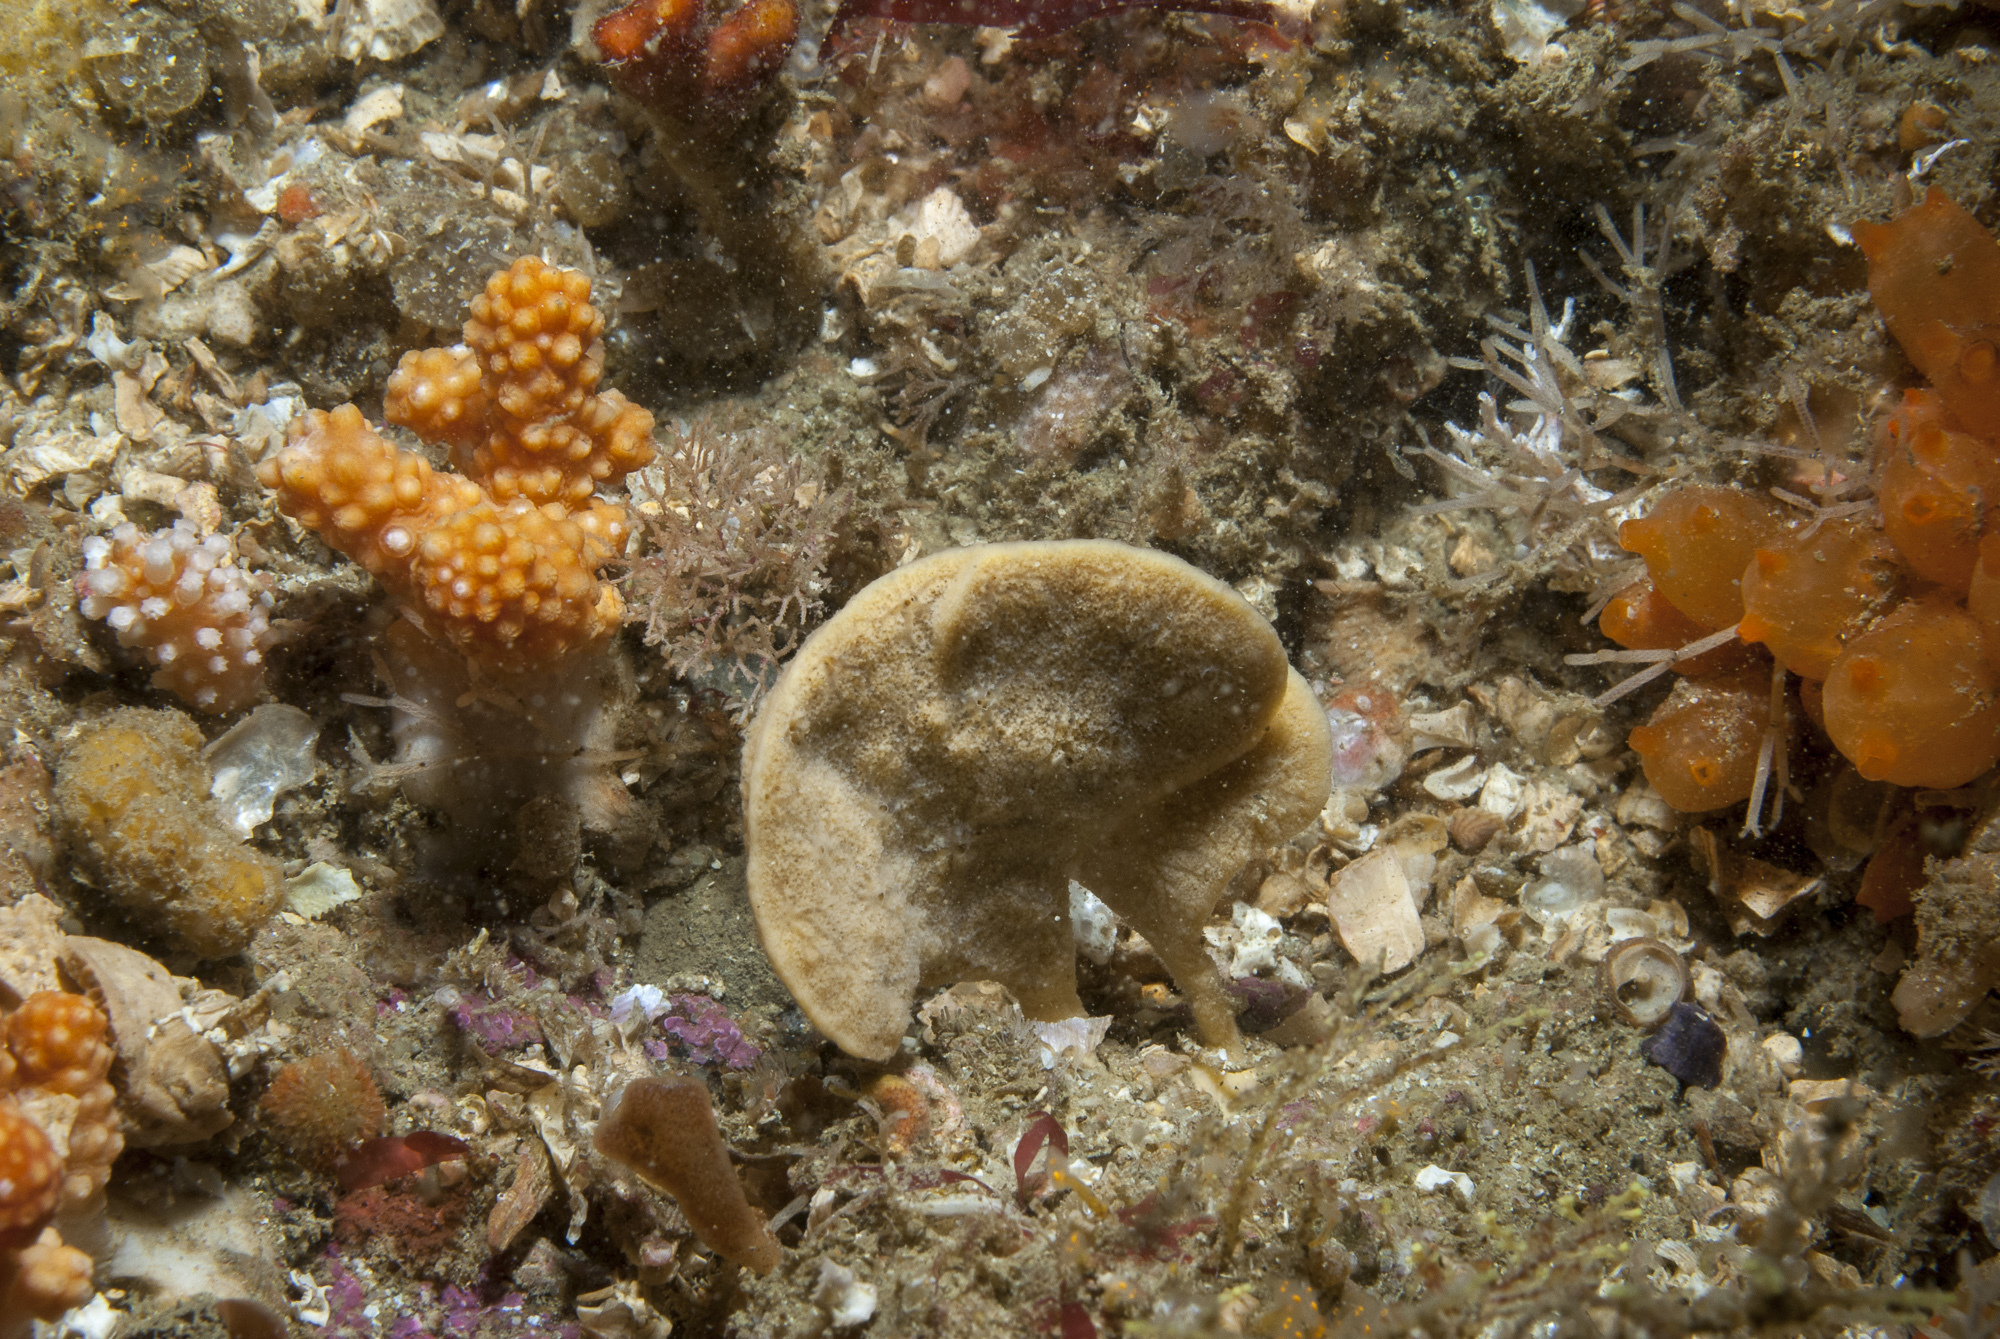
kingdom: Animalia
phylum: Porifera
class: Demospongiae
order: Axinellida
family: Axinellidae
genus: Axinella
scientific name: Axinella flustra
